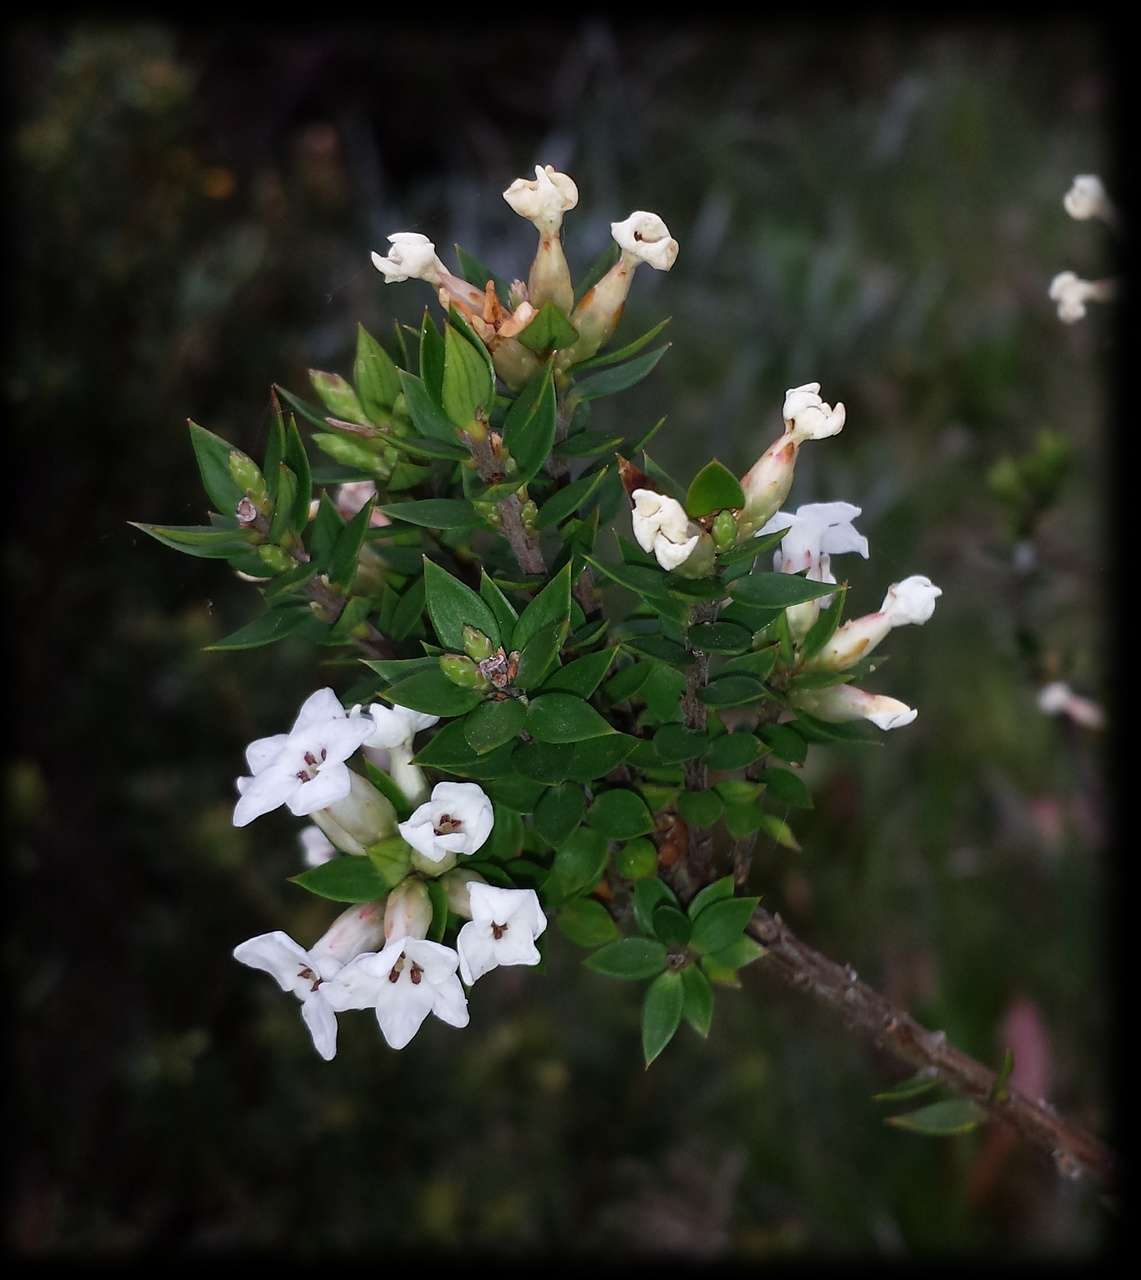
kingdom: Plantae
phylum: Tracheophyta
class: Magnoliopsida
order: Ericales
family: Ericaceae
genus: Epacris
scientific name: Epacris paludosa
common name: Swamp-heath
